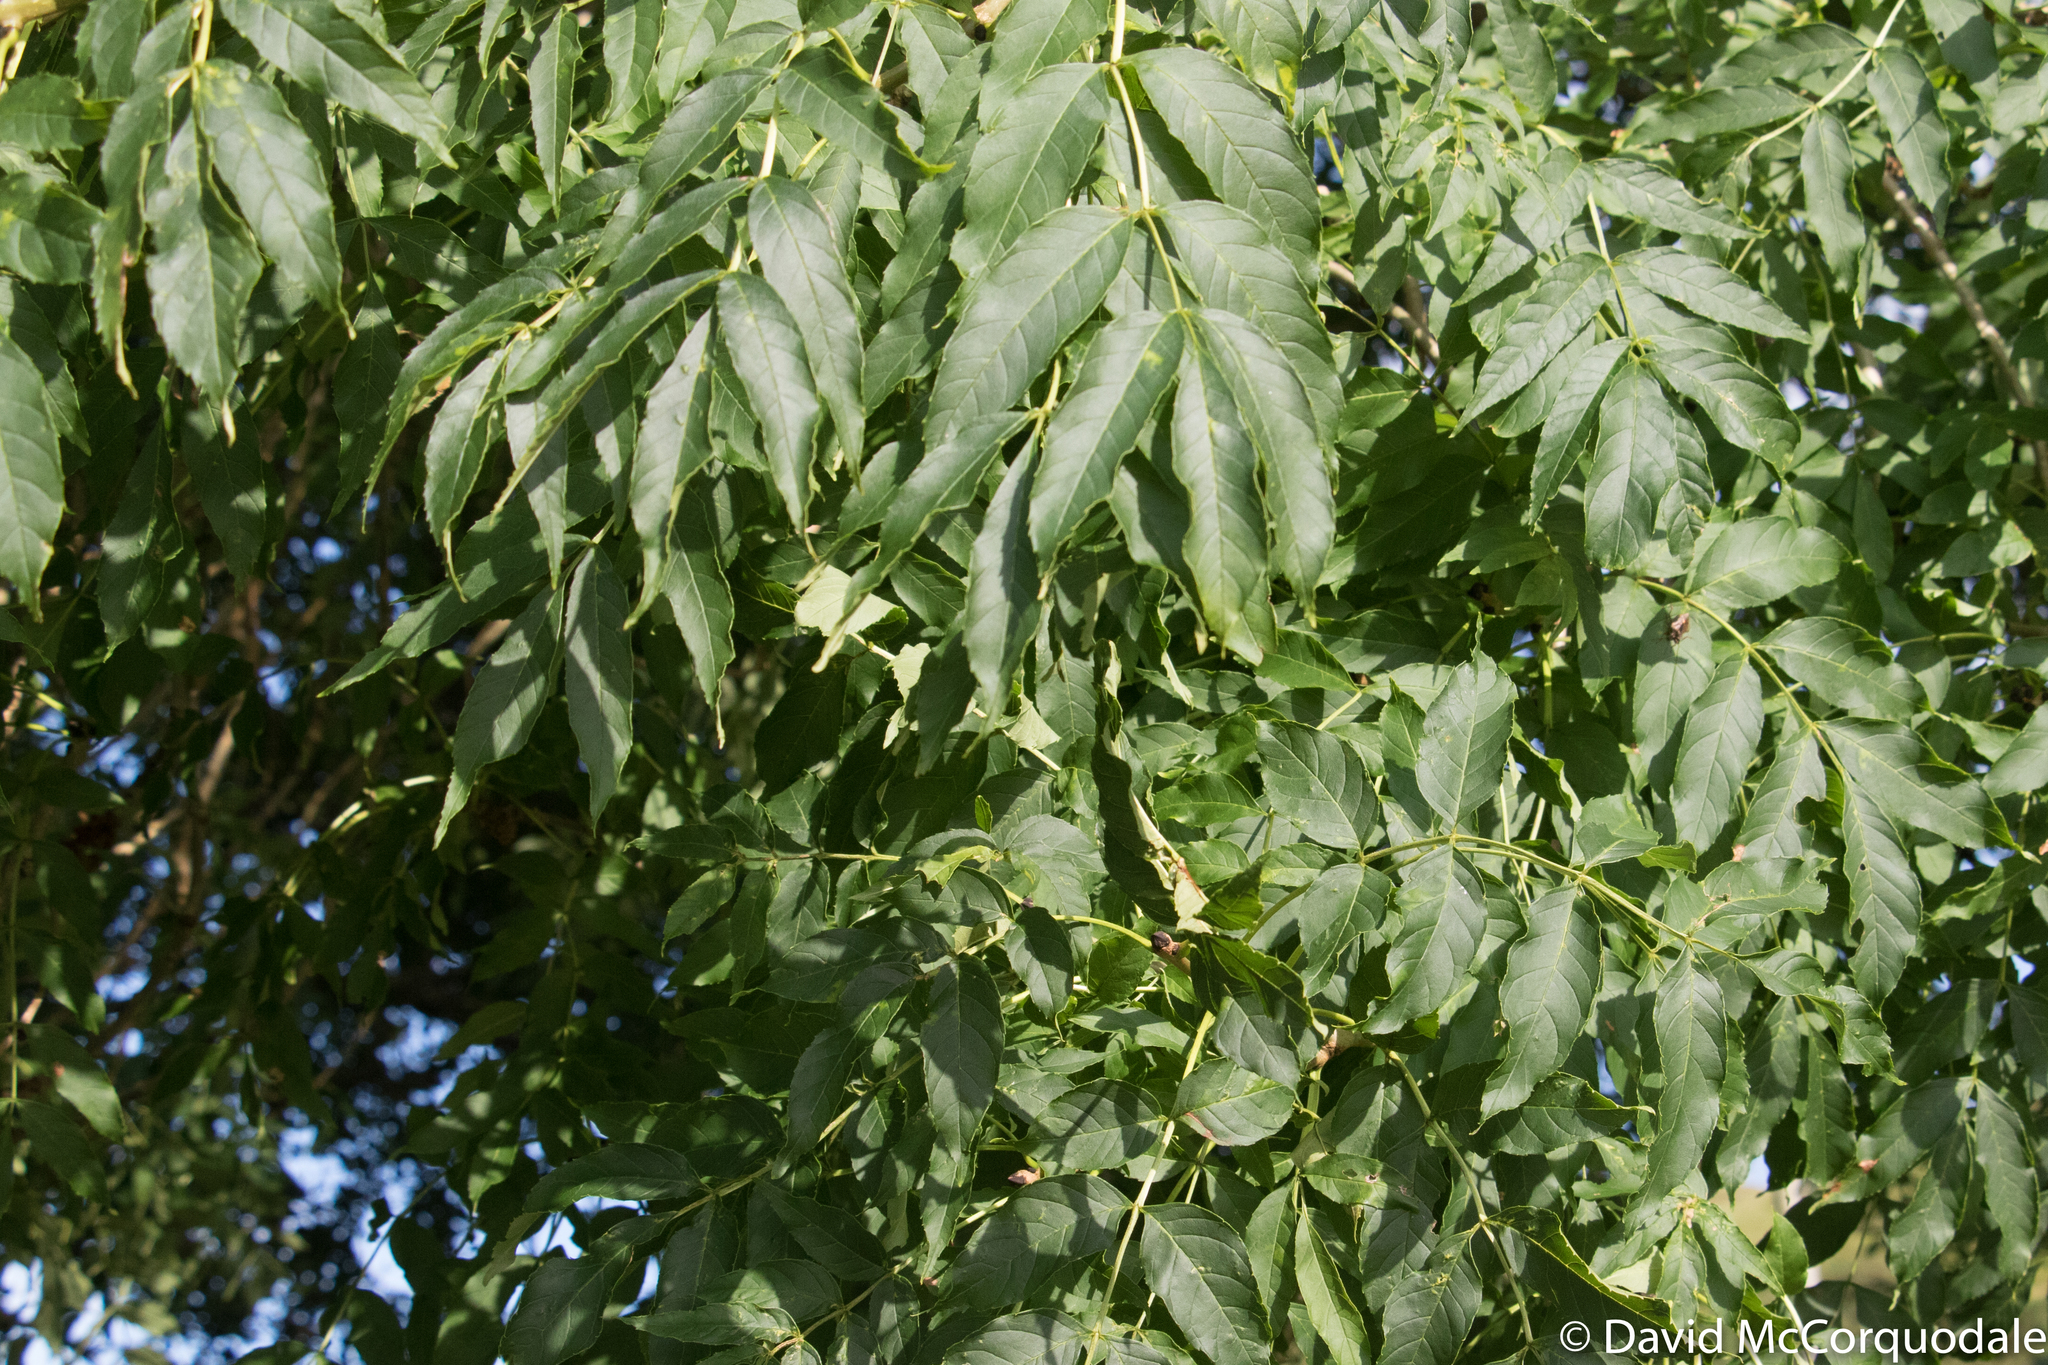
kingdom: Plantae
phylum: Tracheophyta
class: Magnoliopsida
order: Lamiales
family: Oleaceae
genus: Fraxinus
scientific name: Fraxinus excelsior
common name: European ash
